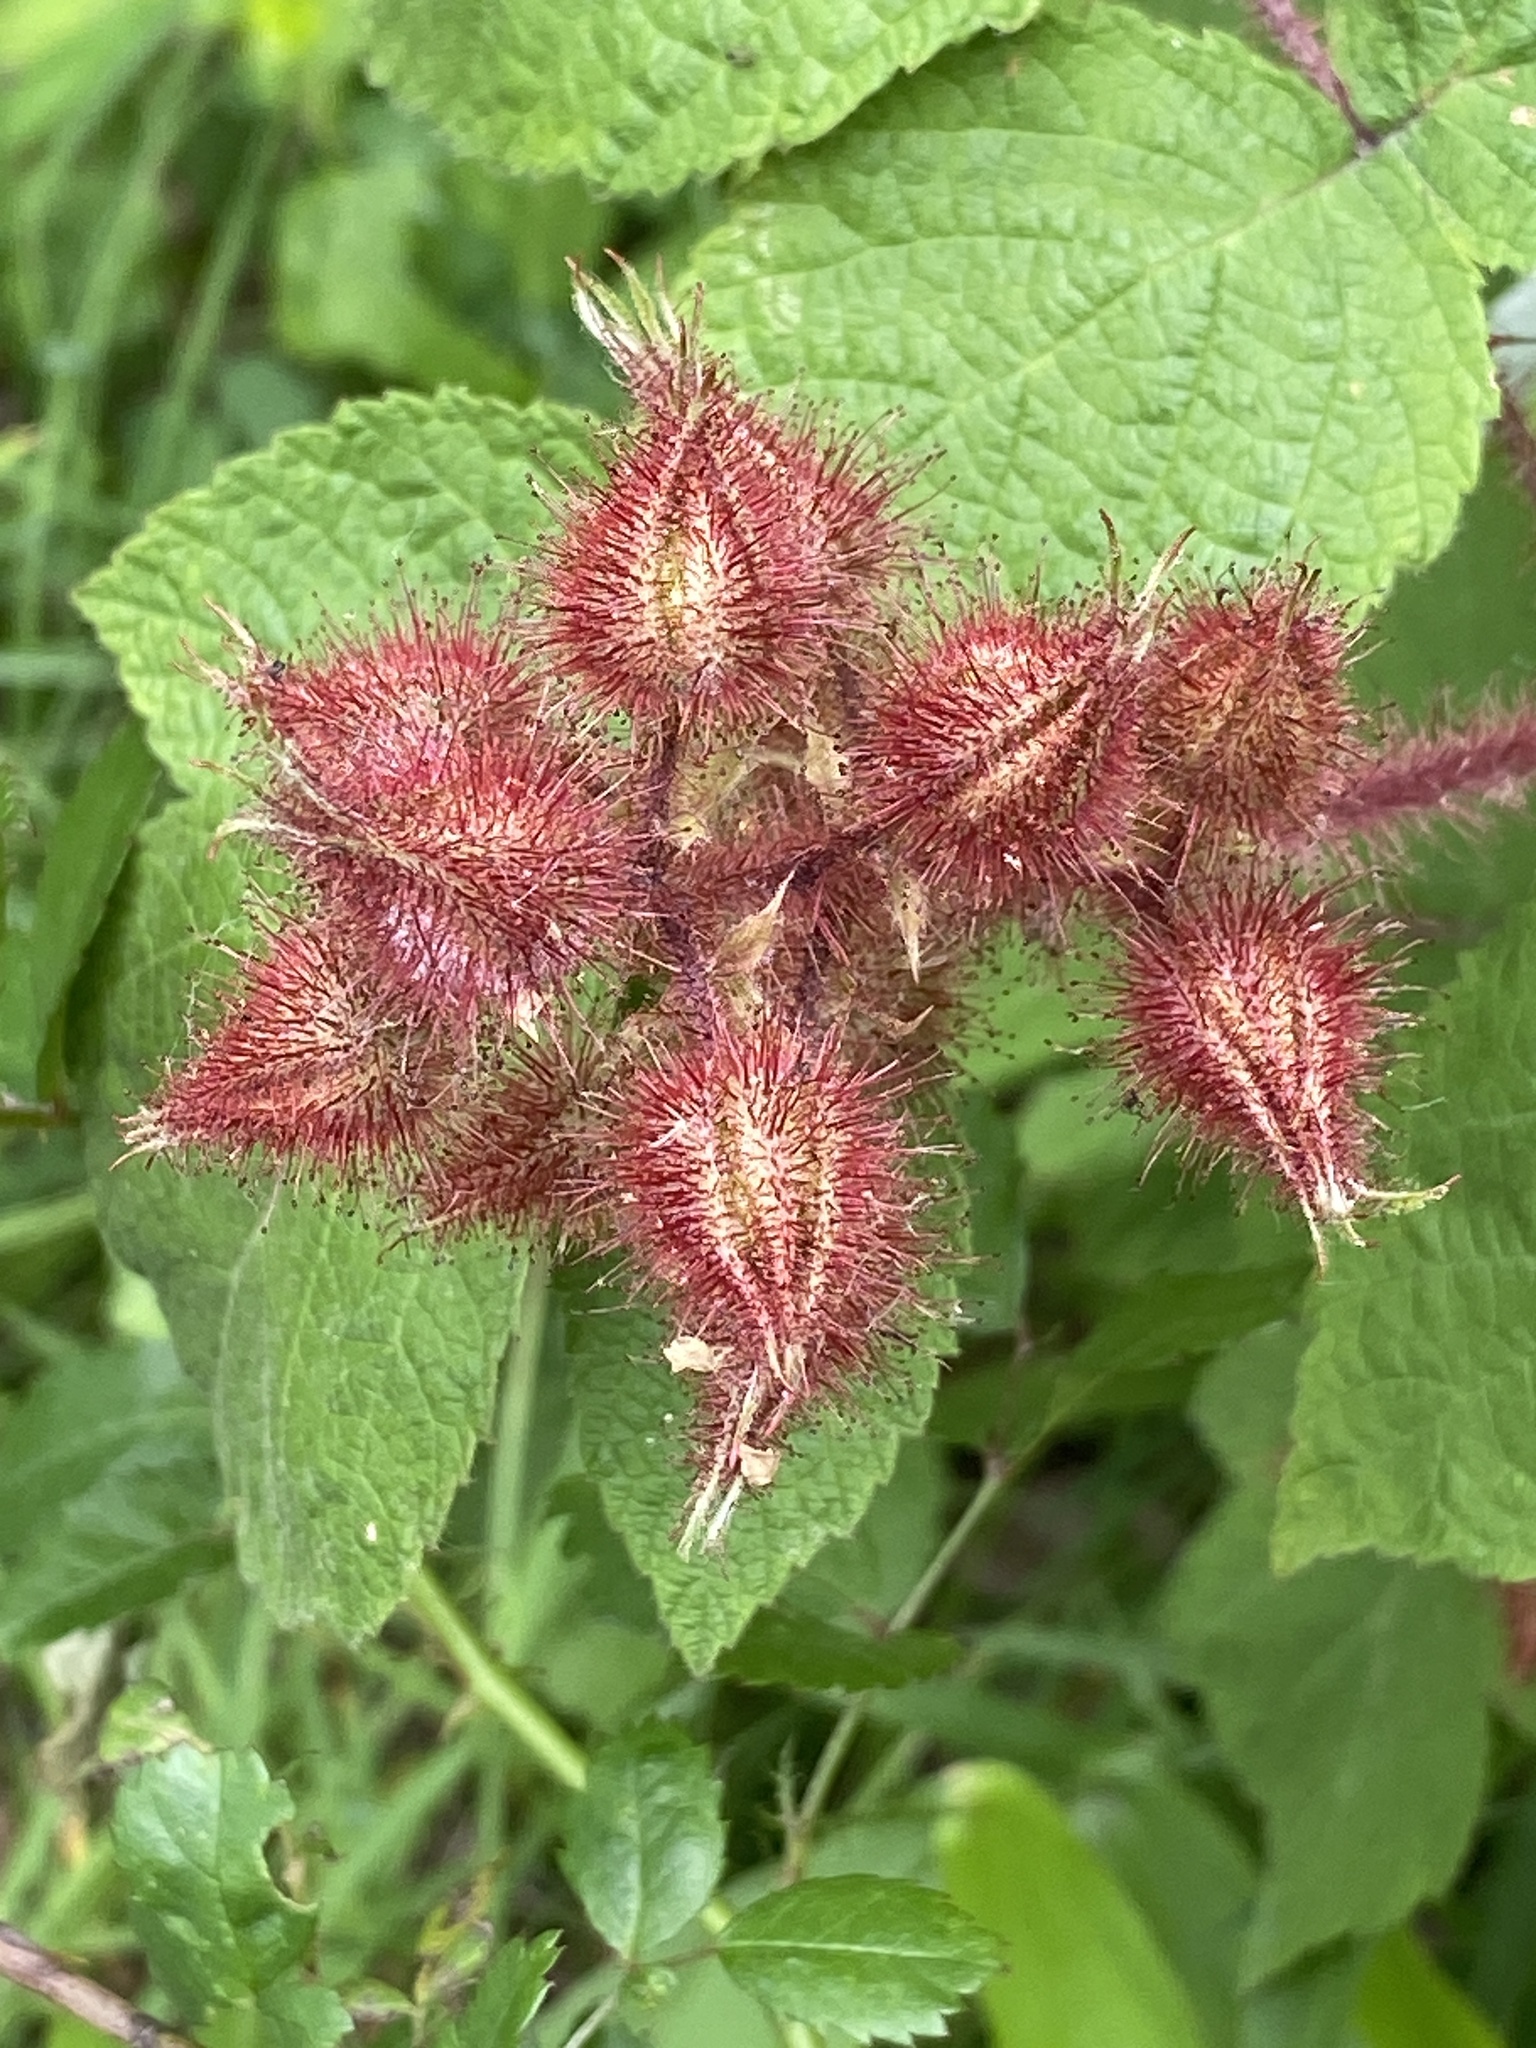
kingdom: Plantae
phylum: Tracheophyta
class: Magnoliopsida
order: Rosales
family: Rosaceae
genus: Rubus
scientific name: Rubus phoenicolasius
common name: Japanese wineberry
